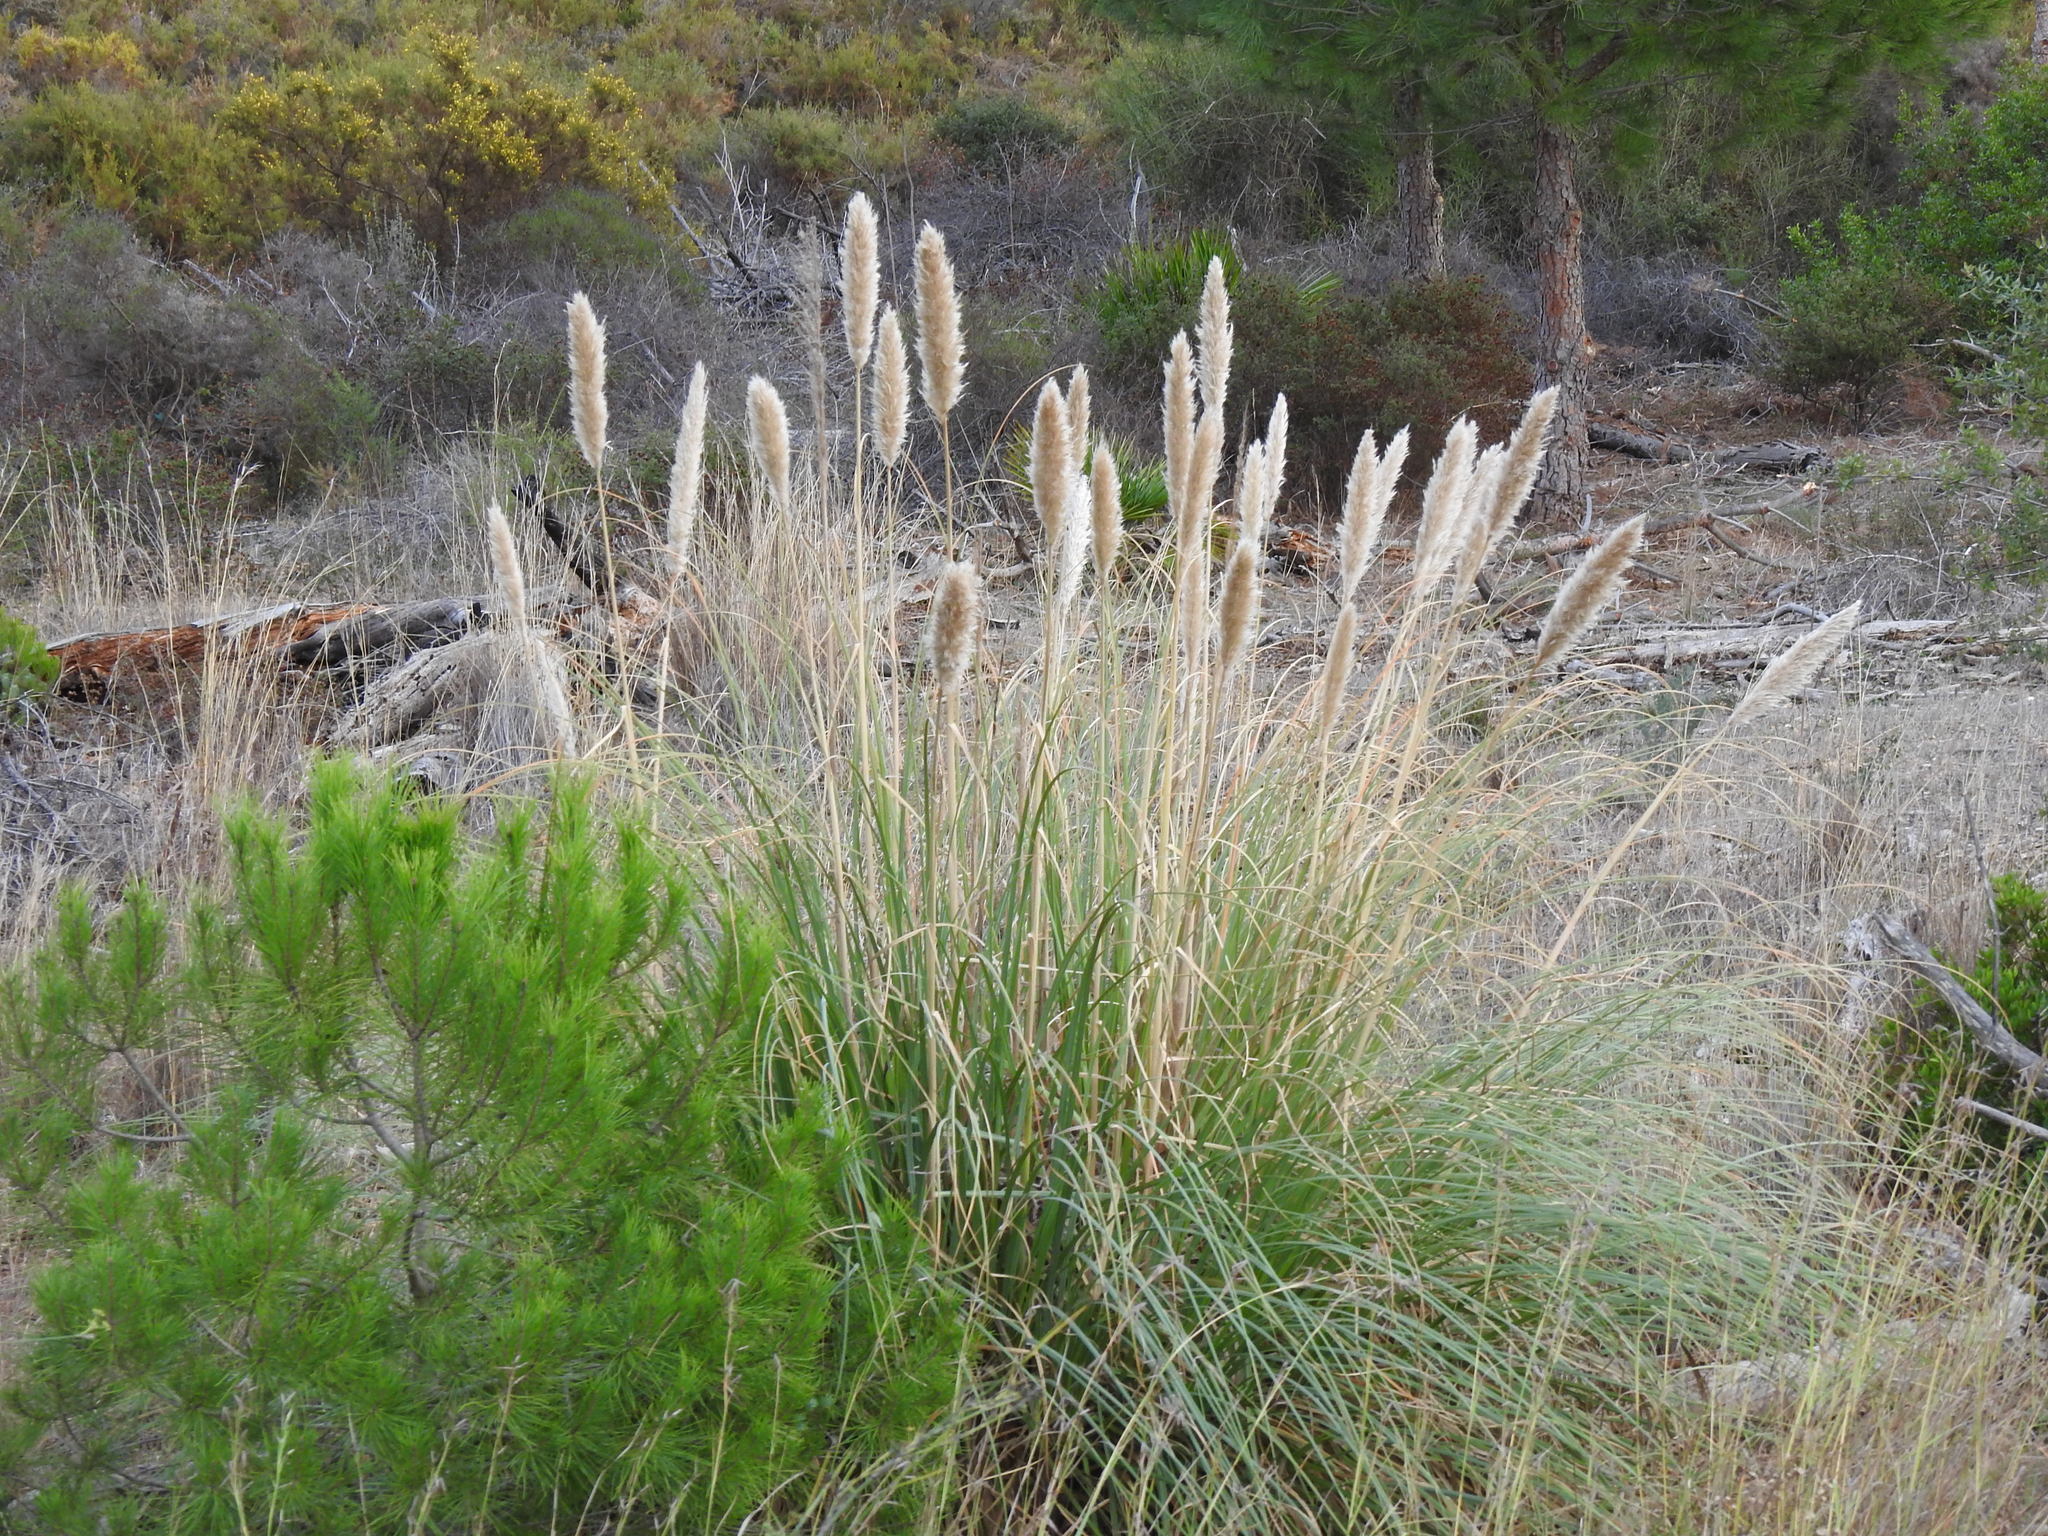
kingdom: Plantae
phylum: Tracheophyta
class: Liliopsida
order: Poales
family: Poaceae
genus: Cortaderia
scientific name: Cortaderia selloana
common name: Uruguayan pampas grass
